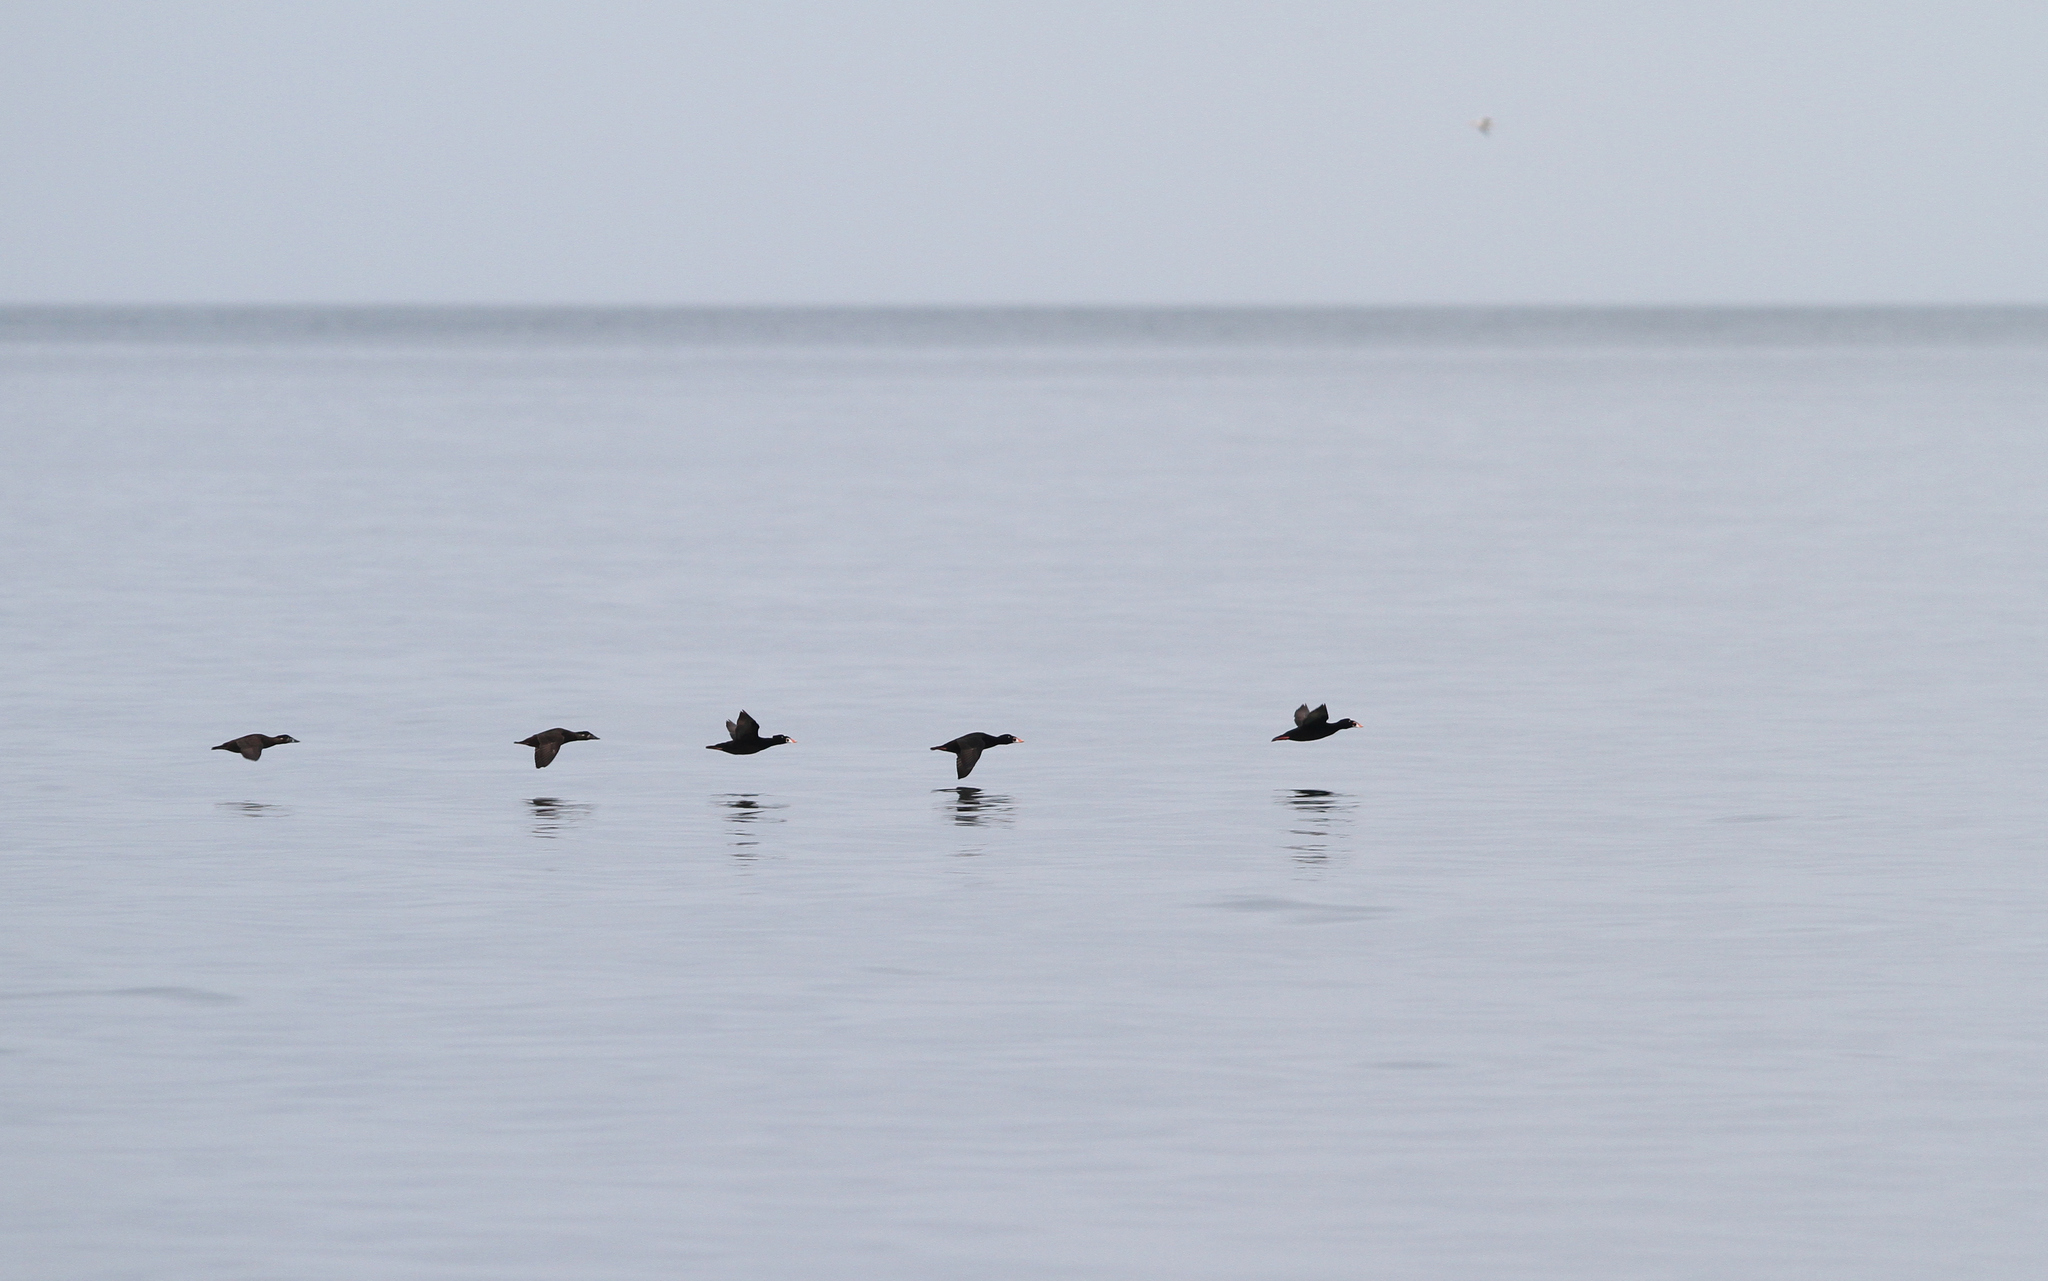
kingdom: Animalia
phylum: Chordata
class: Aves
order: Anseriformes
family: Anatidae
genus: Melanitta
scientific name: Melanitta perspicillata
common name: Surf scoter
